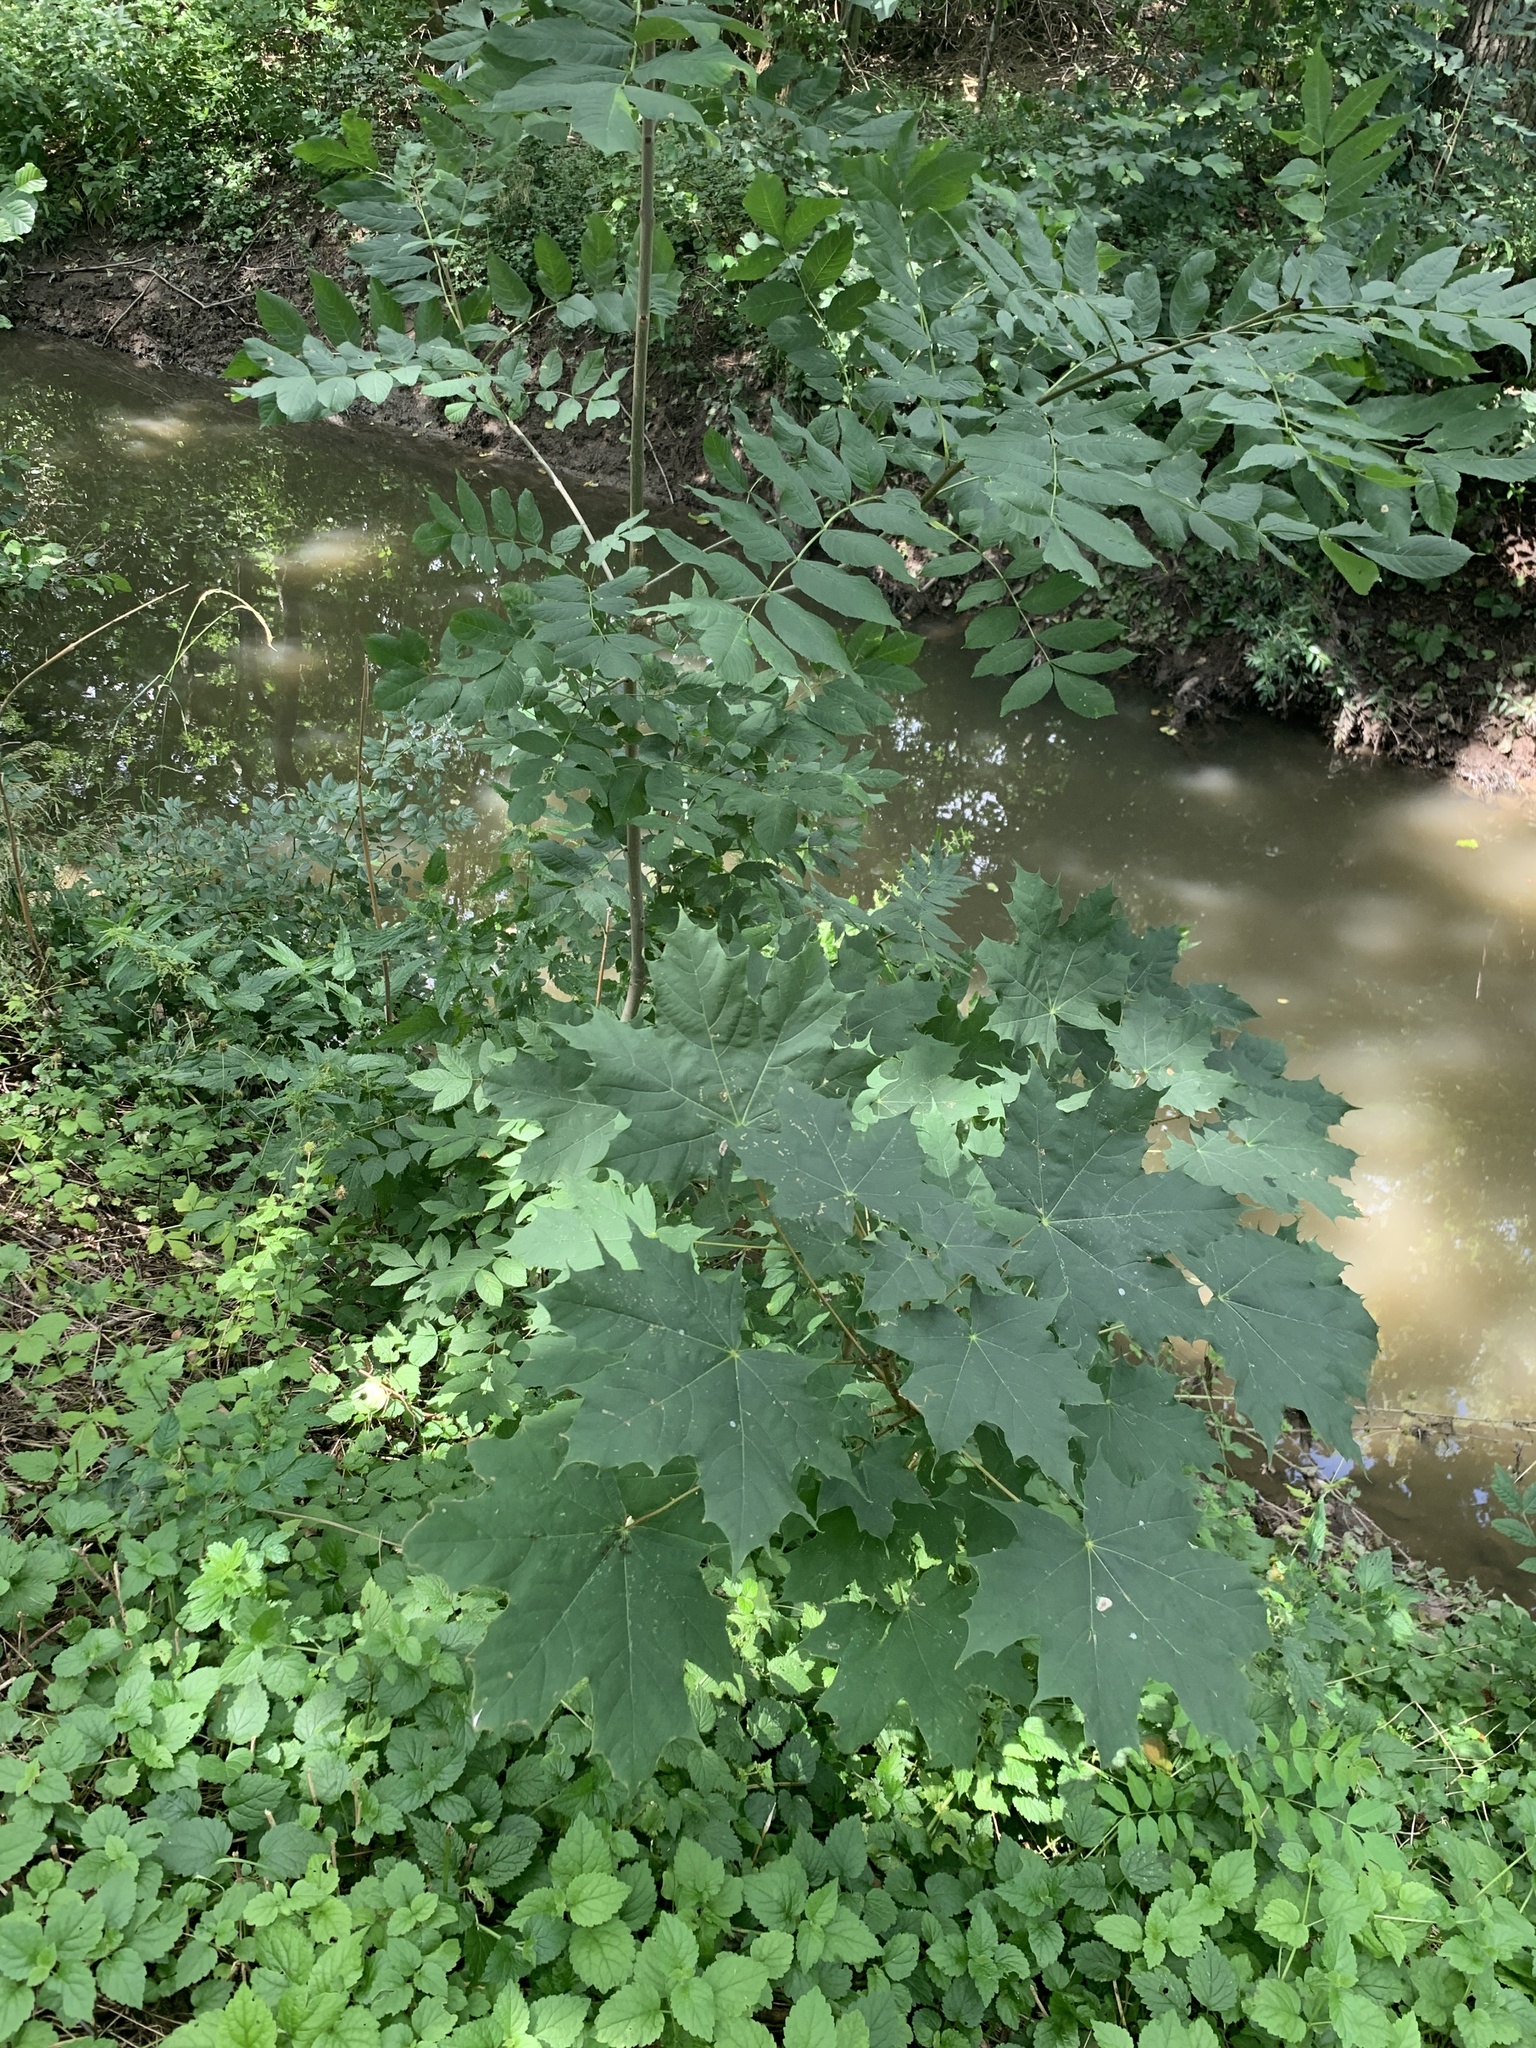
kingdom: Plantae
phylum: Tracheophyta
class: Magnoliopsida
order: Sapindales
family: Sapindaceae
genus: Acer
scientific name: Acer platanoides
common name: Norway maple
